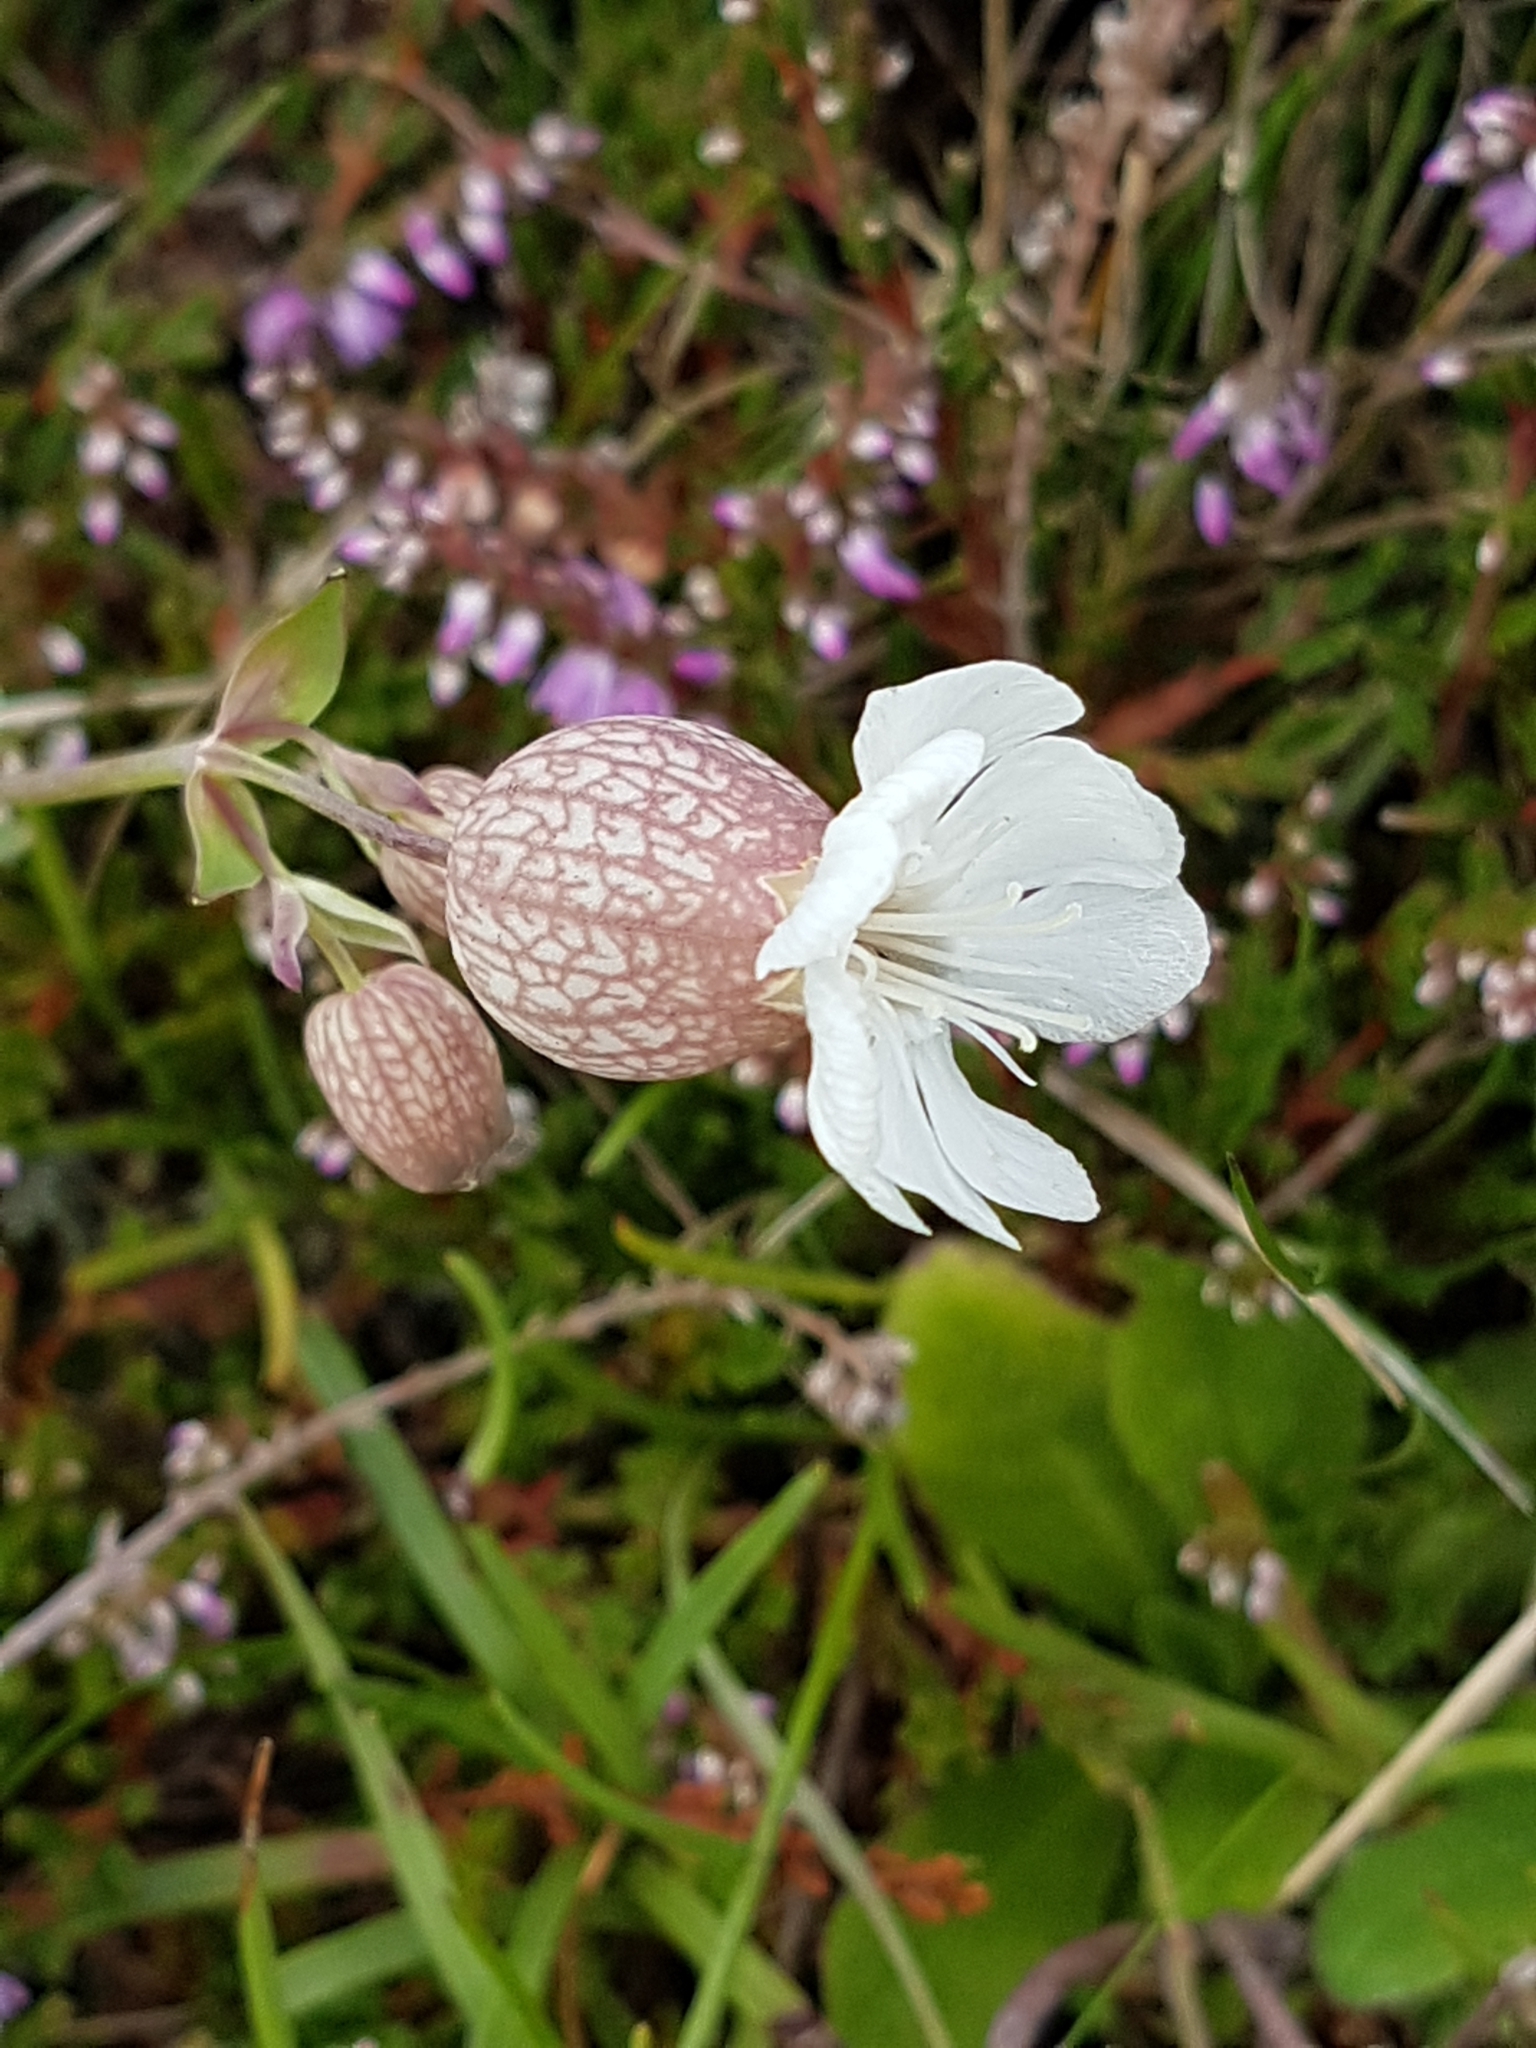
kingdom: Plantae
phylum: Tracheophyta
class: Magnoliopsida
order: Caryophyllales
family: Caryophyllaceae
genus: Silene
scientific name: Silene uniflora
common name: Sea campion
